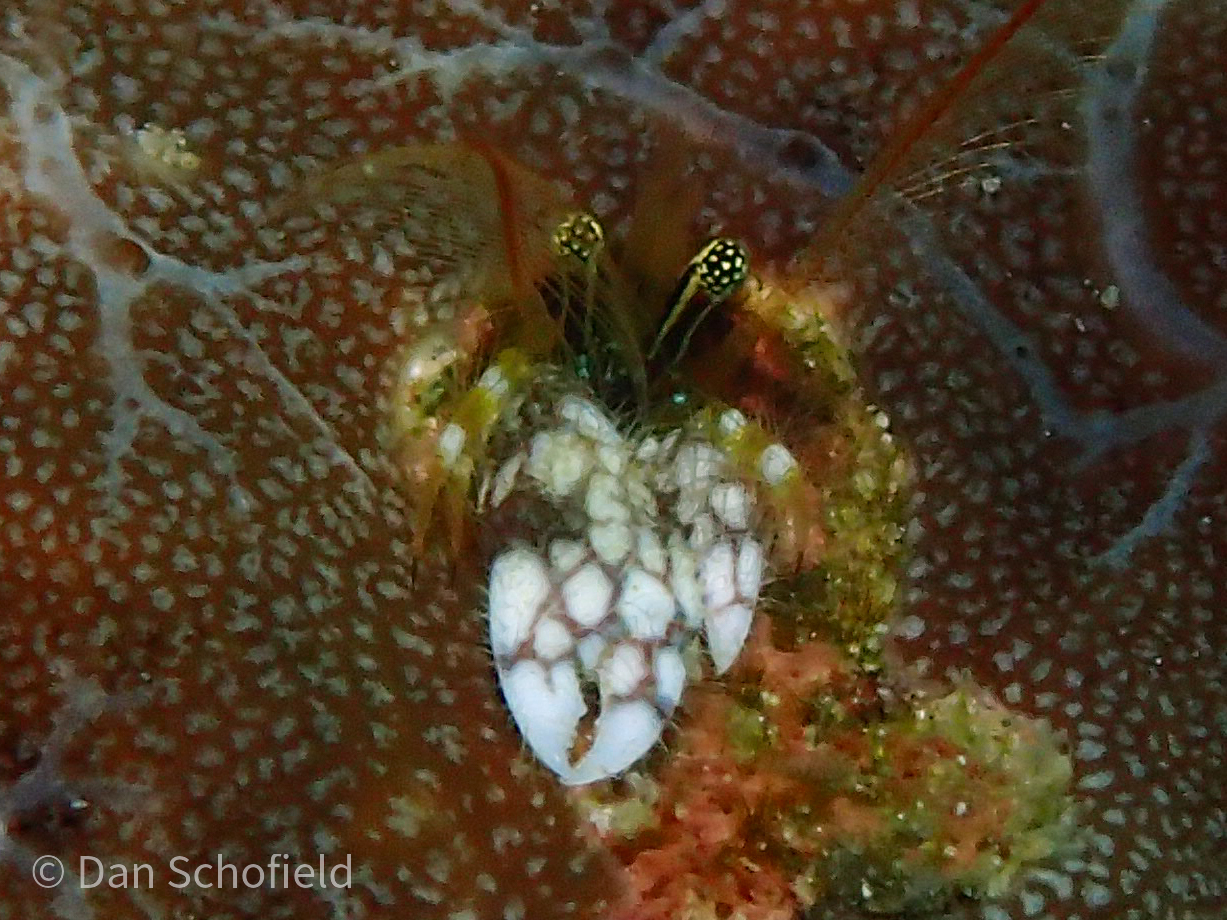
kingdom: Animalia
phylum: Arthropoda
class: Malacostraca
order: Decapoda
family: Paguridae
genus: Paguritta
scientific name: Paguritta morgani
